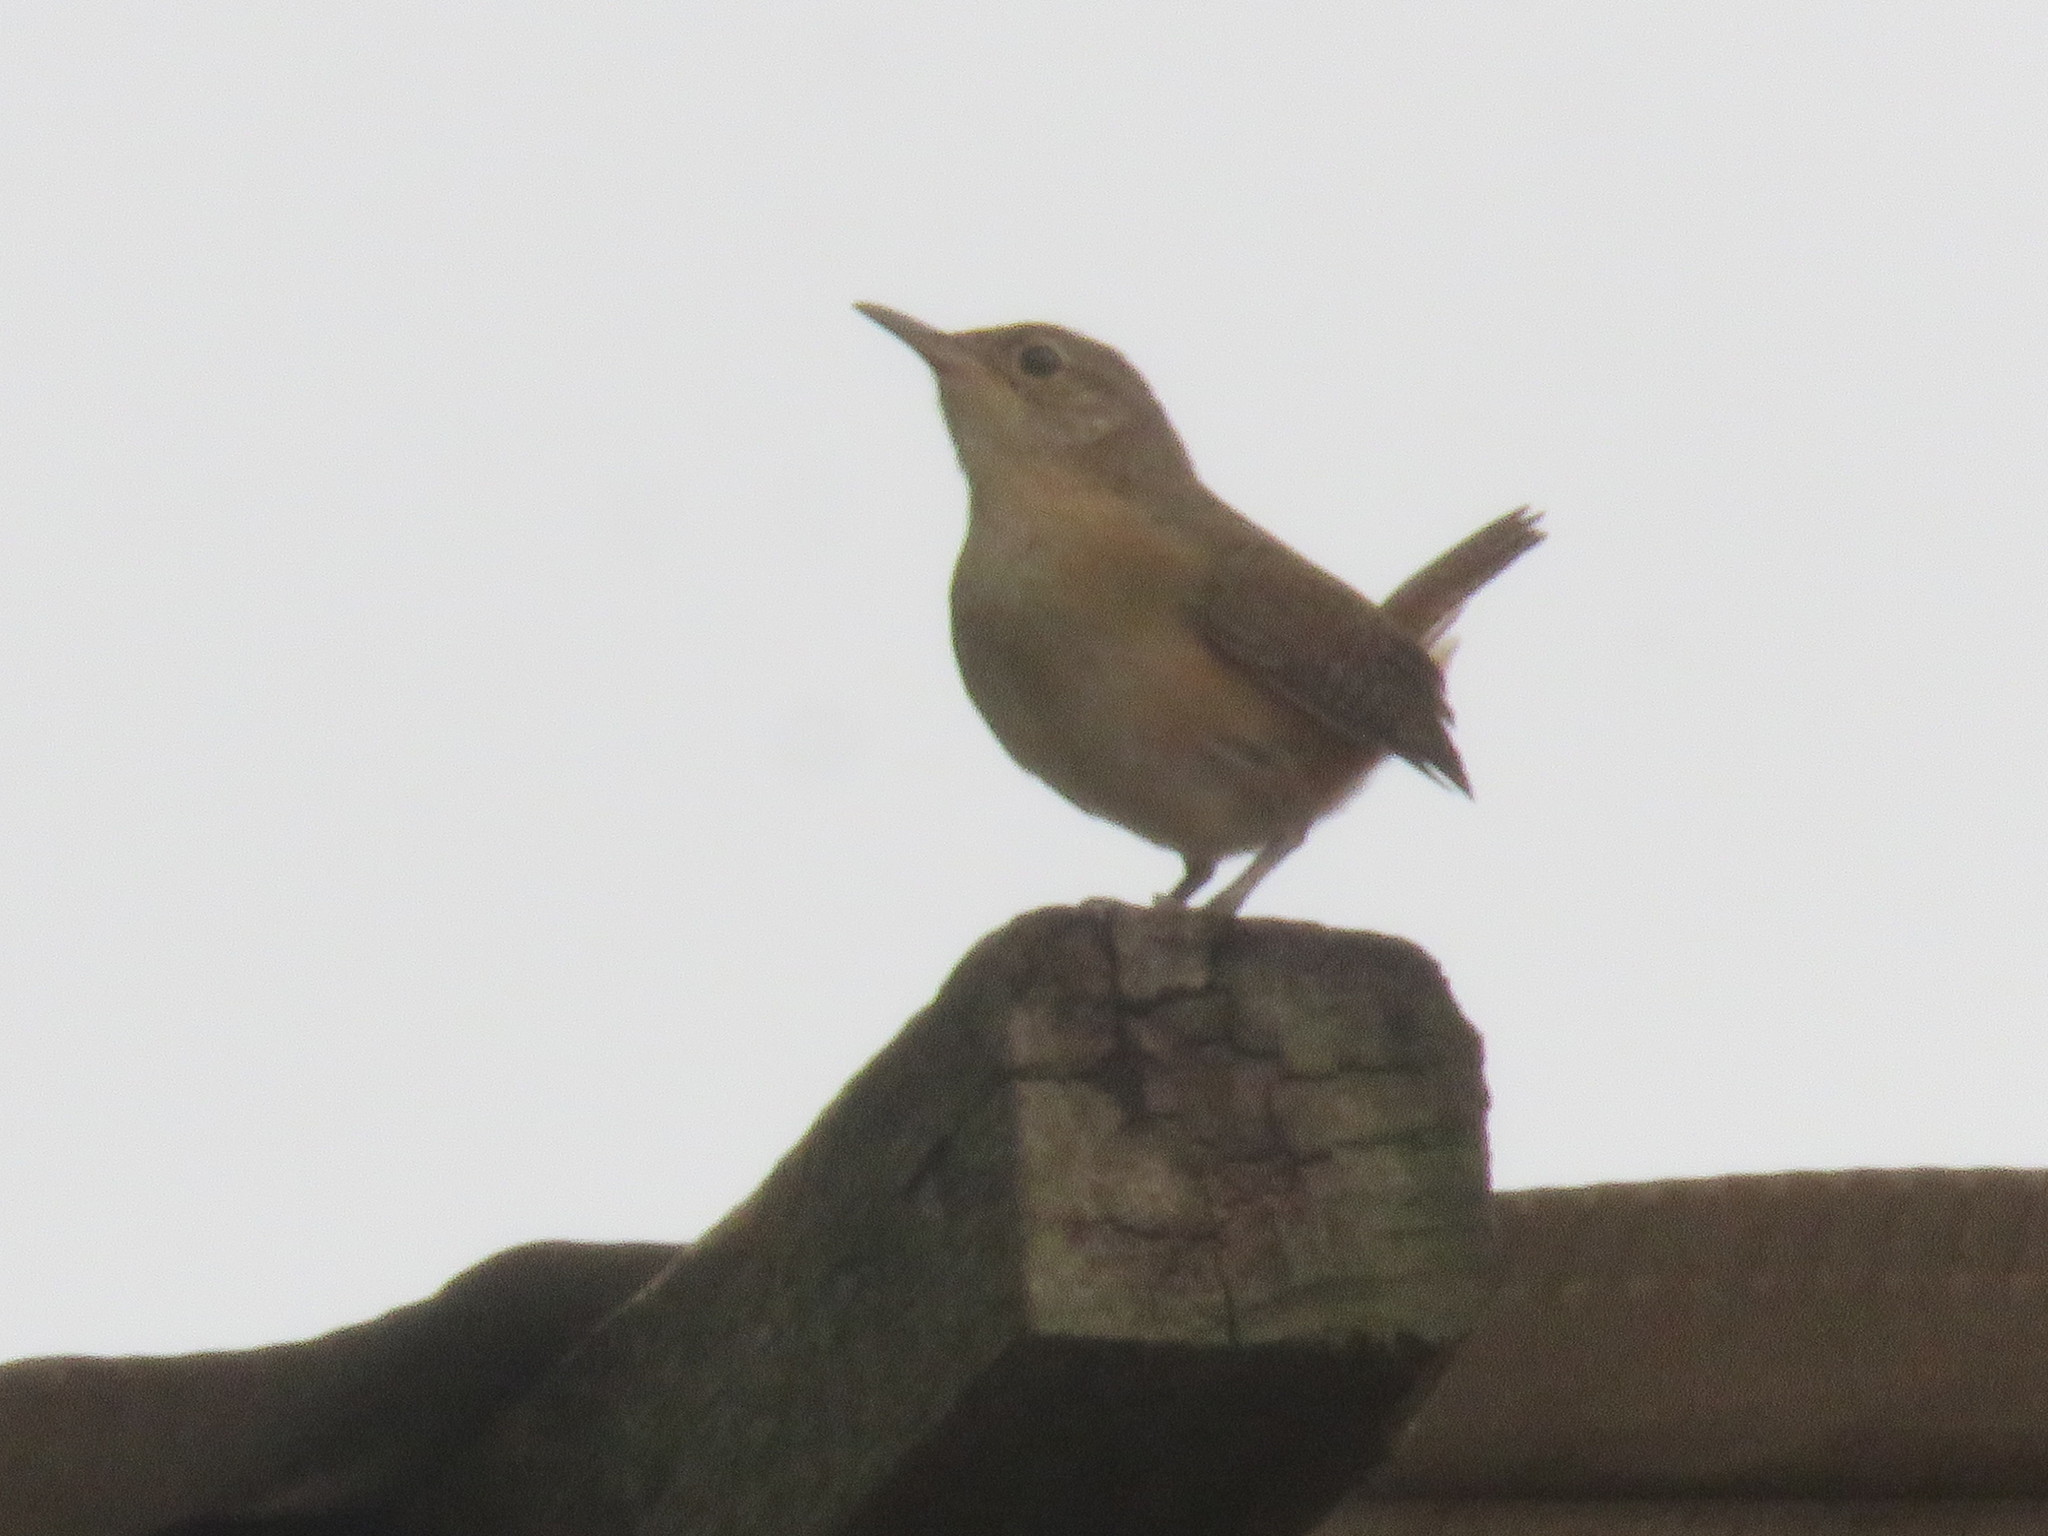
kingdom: Animalia
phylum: Chordata
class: Aves
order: Passeriformes
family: Troglodytidae
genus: Troglodytes
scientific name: Troglodytes aedon
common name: House wren
